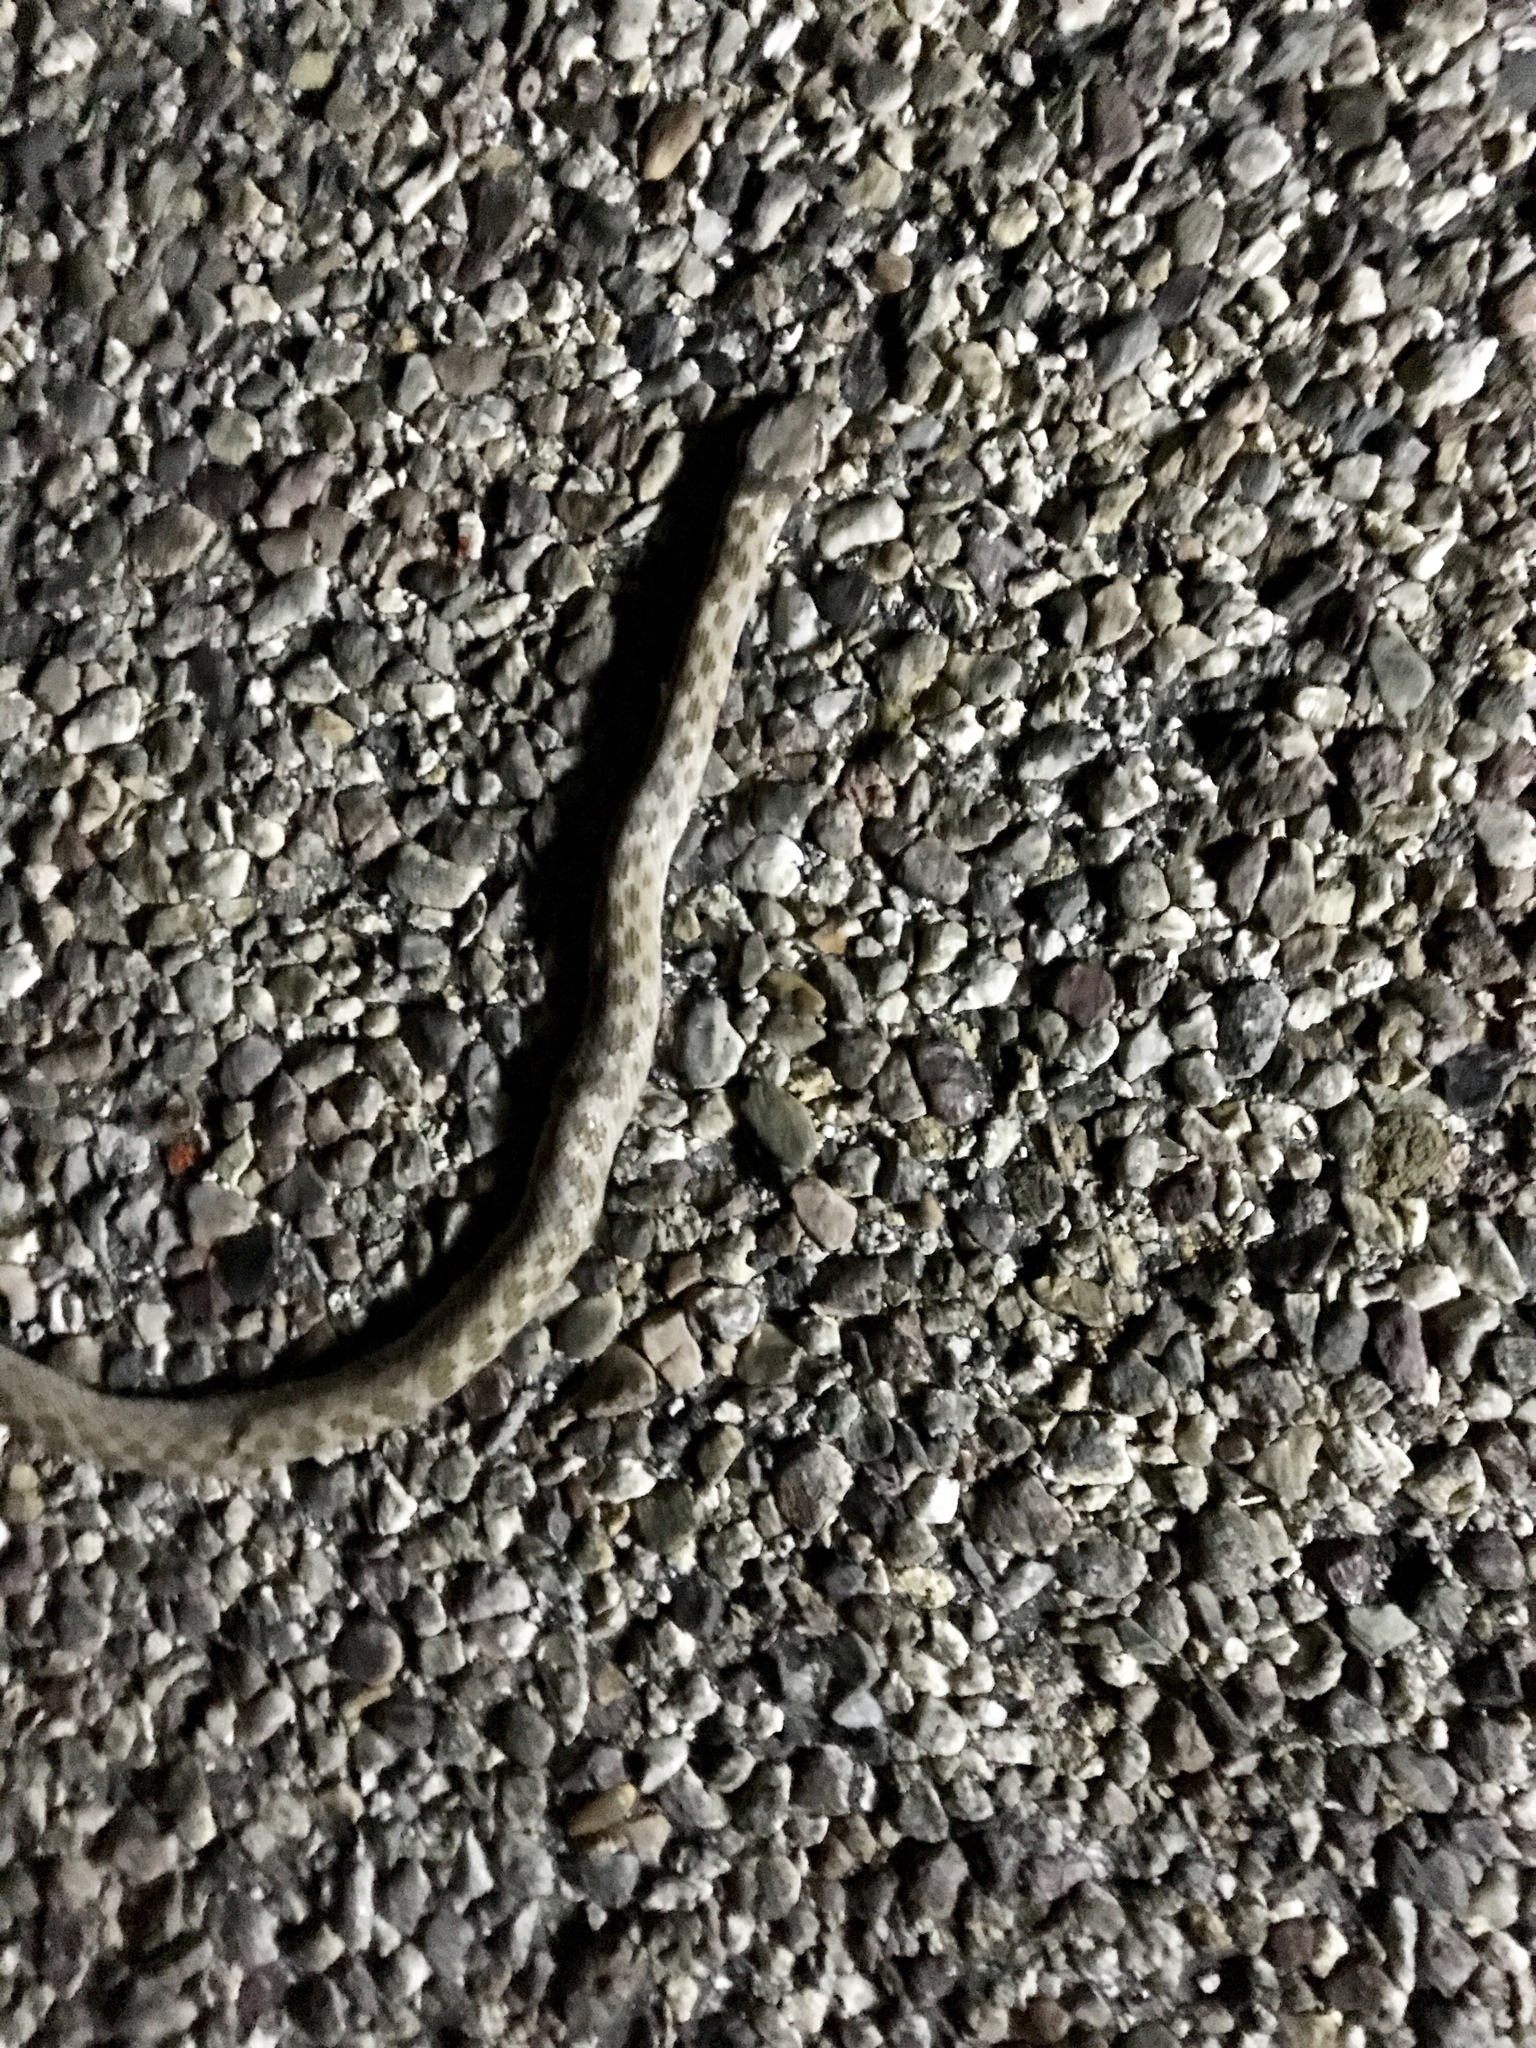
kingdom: Animalia
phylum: Chordata
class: Squamata
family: Colubridae
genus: Hypsiglena
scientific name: Hypsiglena chlorophaea
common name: Desert nightsnake
